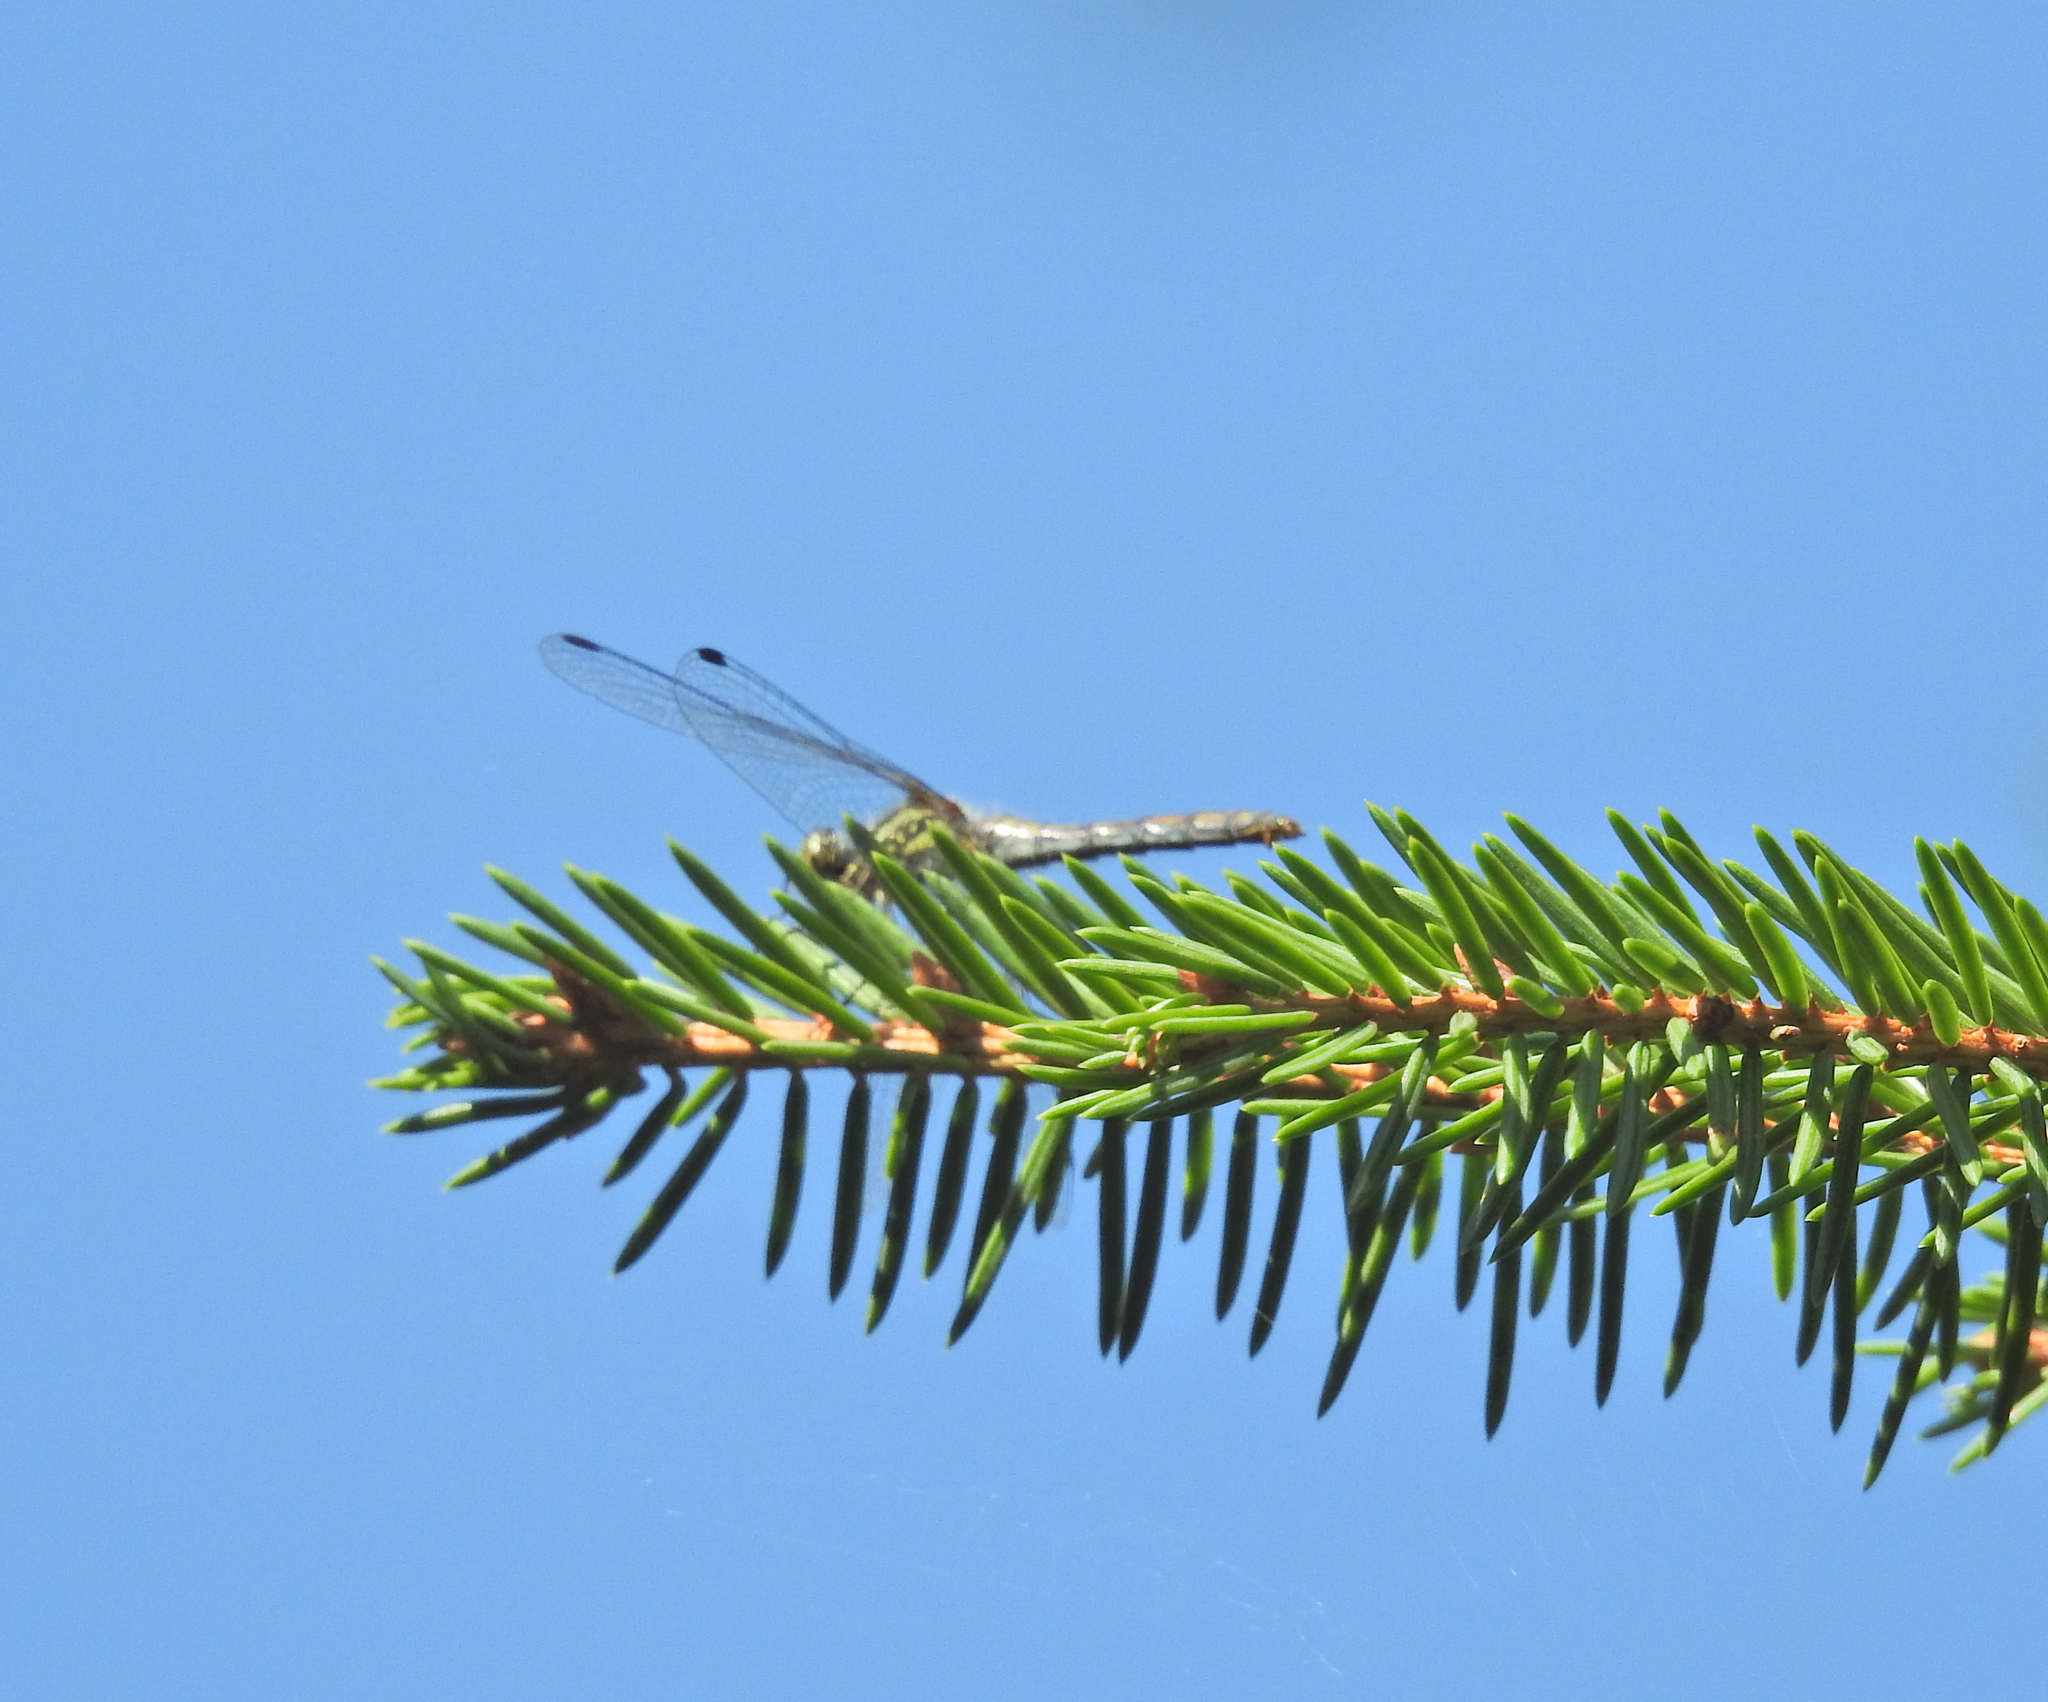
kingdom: Animalia
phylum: Arthropoda
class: Insecta
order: Odonata
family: Libellulidae
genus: Sympetrum
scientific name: Sympetrum danae
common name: Black darter
